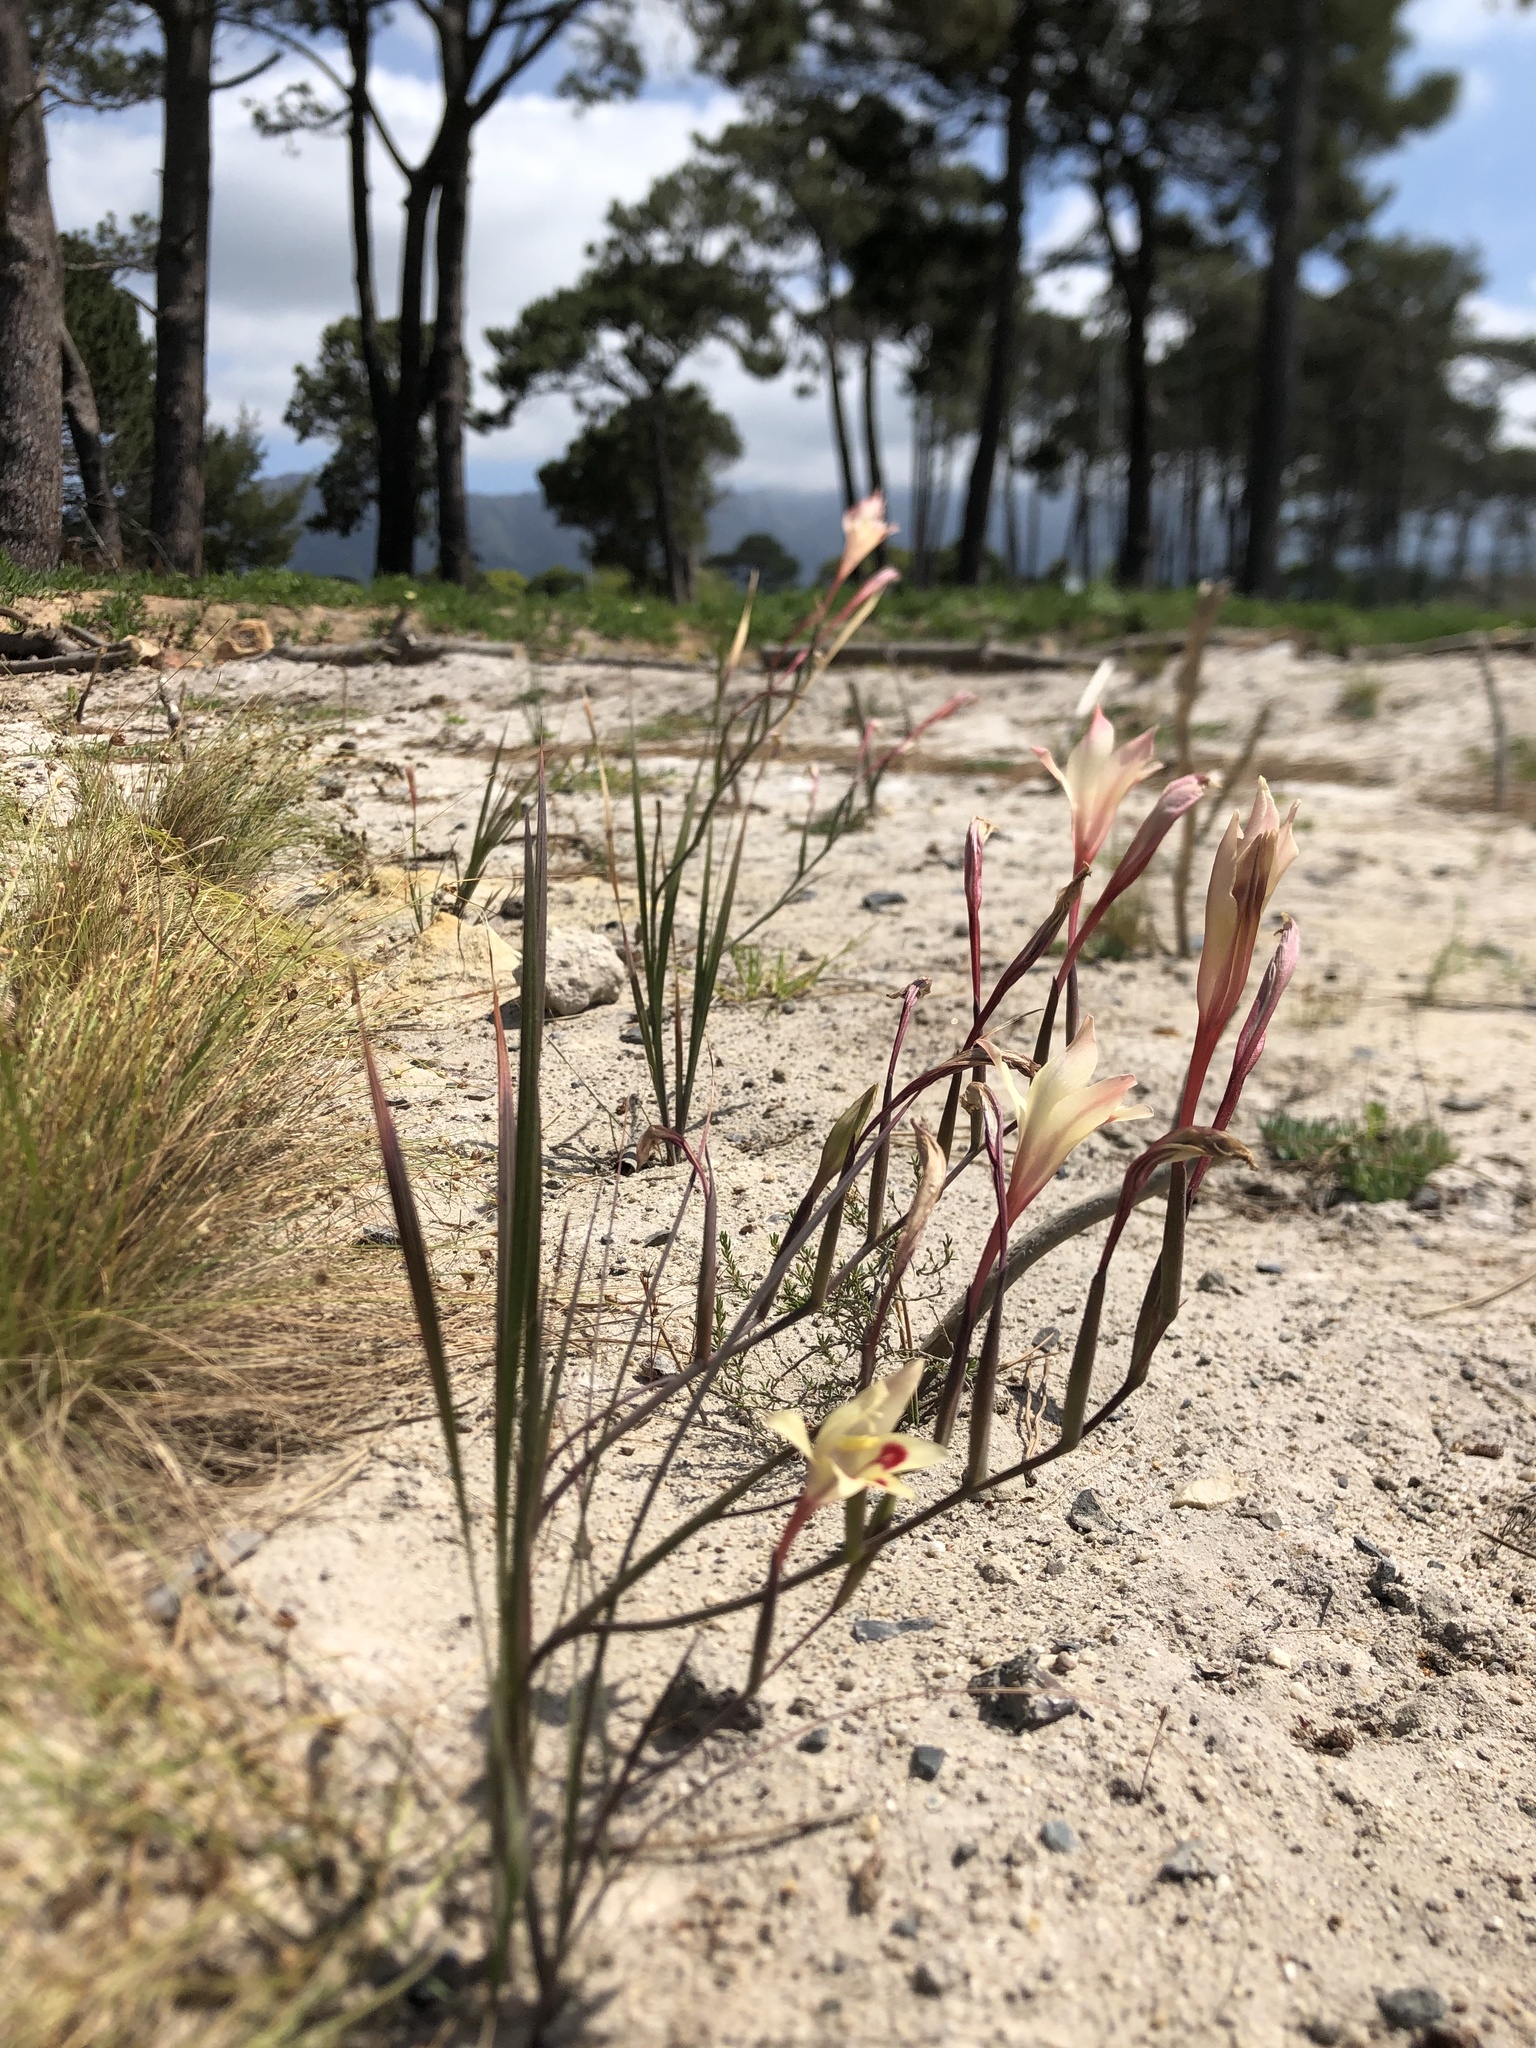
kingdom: Plantae
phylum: Tracheophyta
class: Liliopsida
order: Asparagales
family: Iridaceae
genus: Gladiolus
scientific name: Gladiolus angustus
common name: Painted-lady
